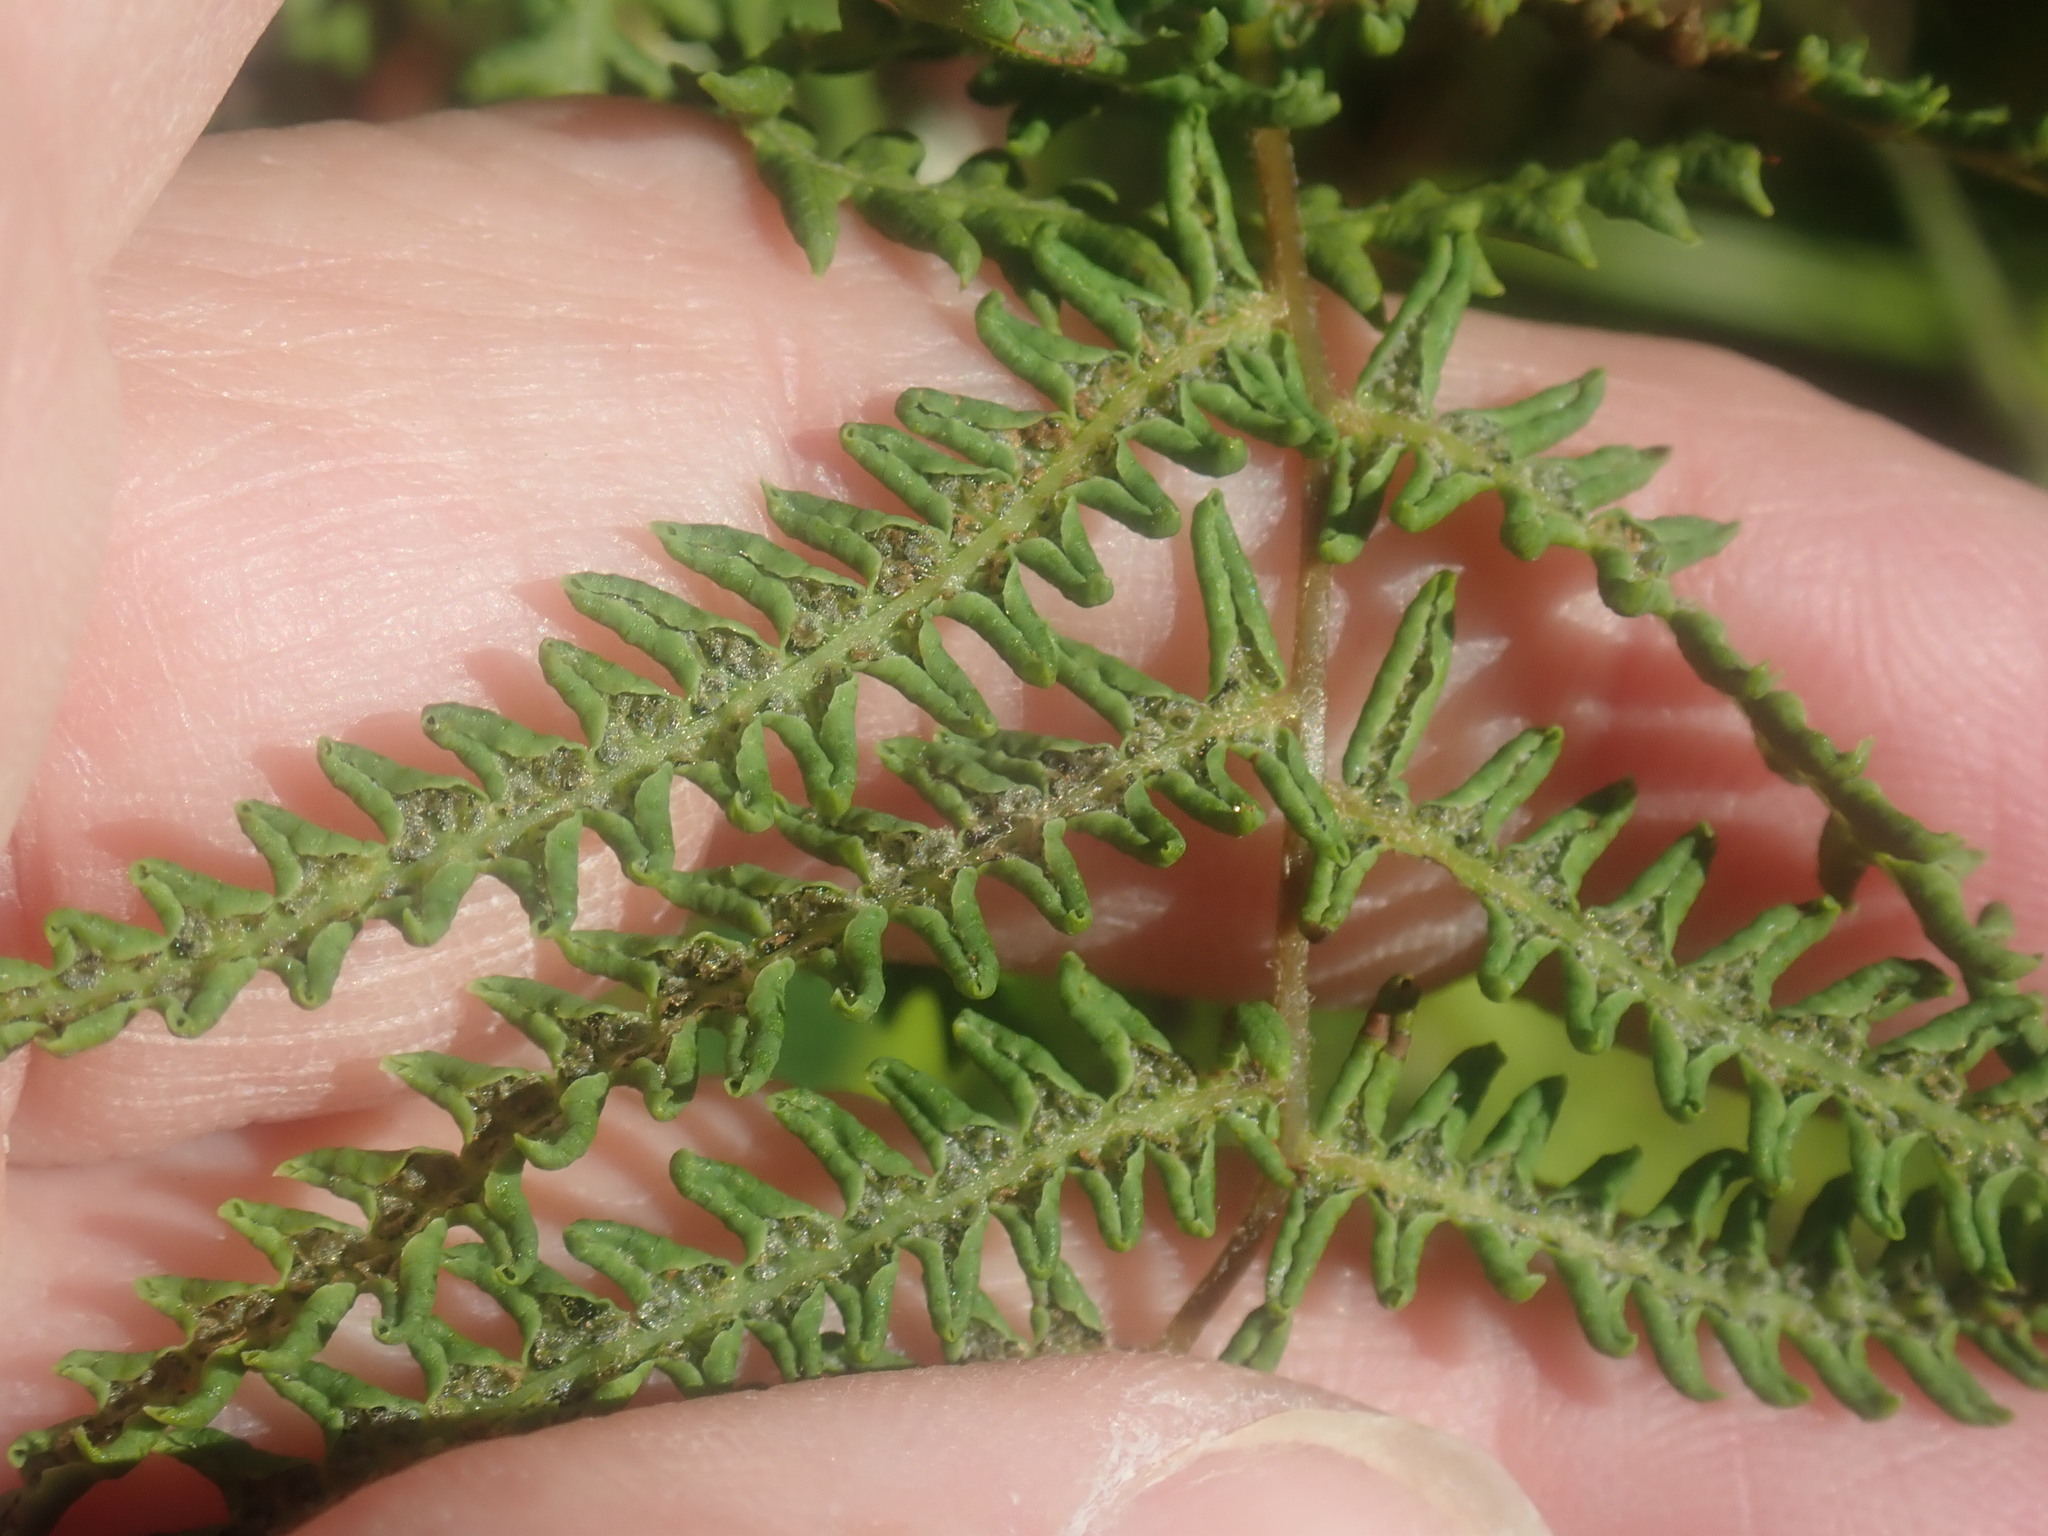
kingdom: Plantae
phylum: Tracheophyta
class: Polypodiopsida
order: Polypodiales
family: Thelypteridaceae
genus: Thelypteris
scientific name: Thelypteris palustris
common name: Marsh fern
